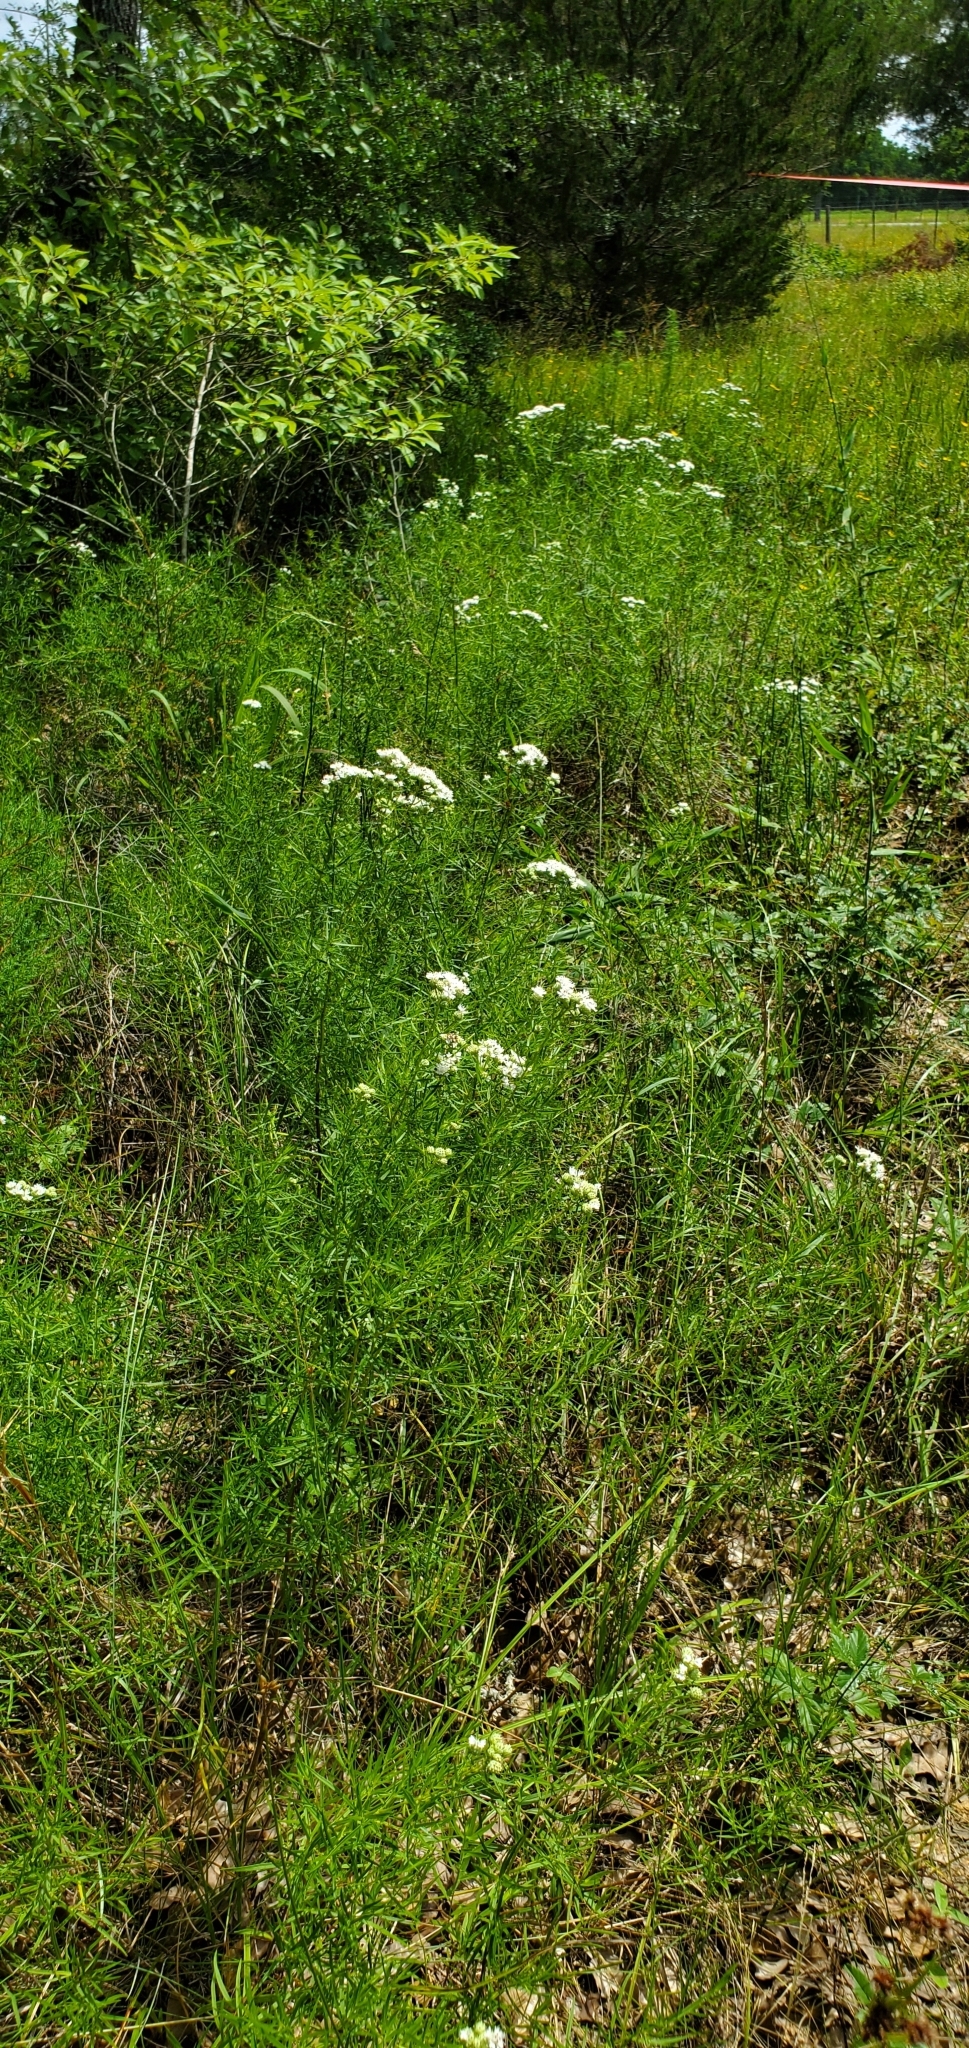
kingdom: Plantae
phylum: Tracheophyta
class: Magnoliopsida
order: Lamiales
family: Lamiaceae
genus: Pycnanthemum
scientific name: Pycnanthemum tenuifolium
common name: Narrow-leaf mountain-mint
